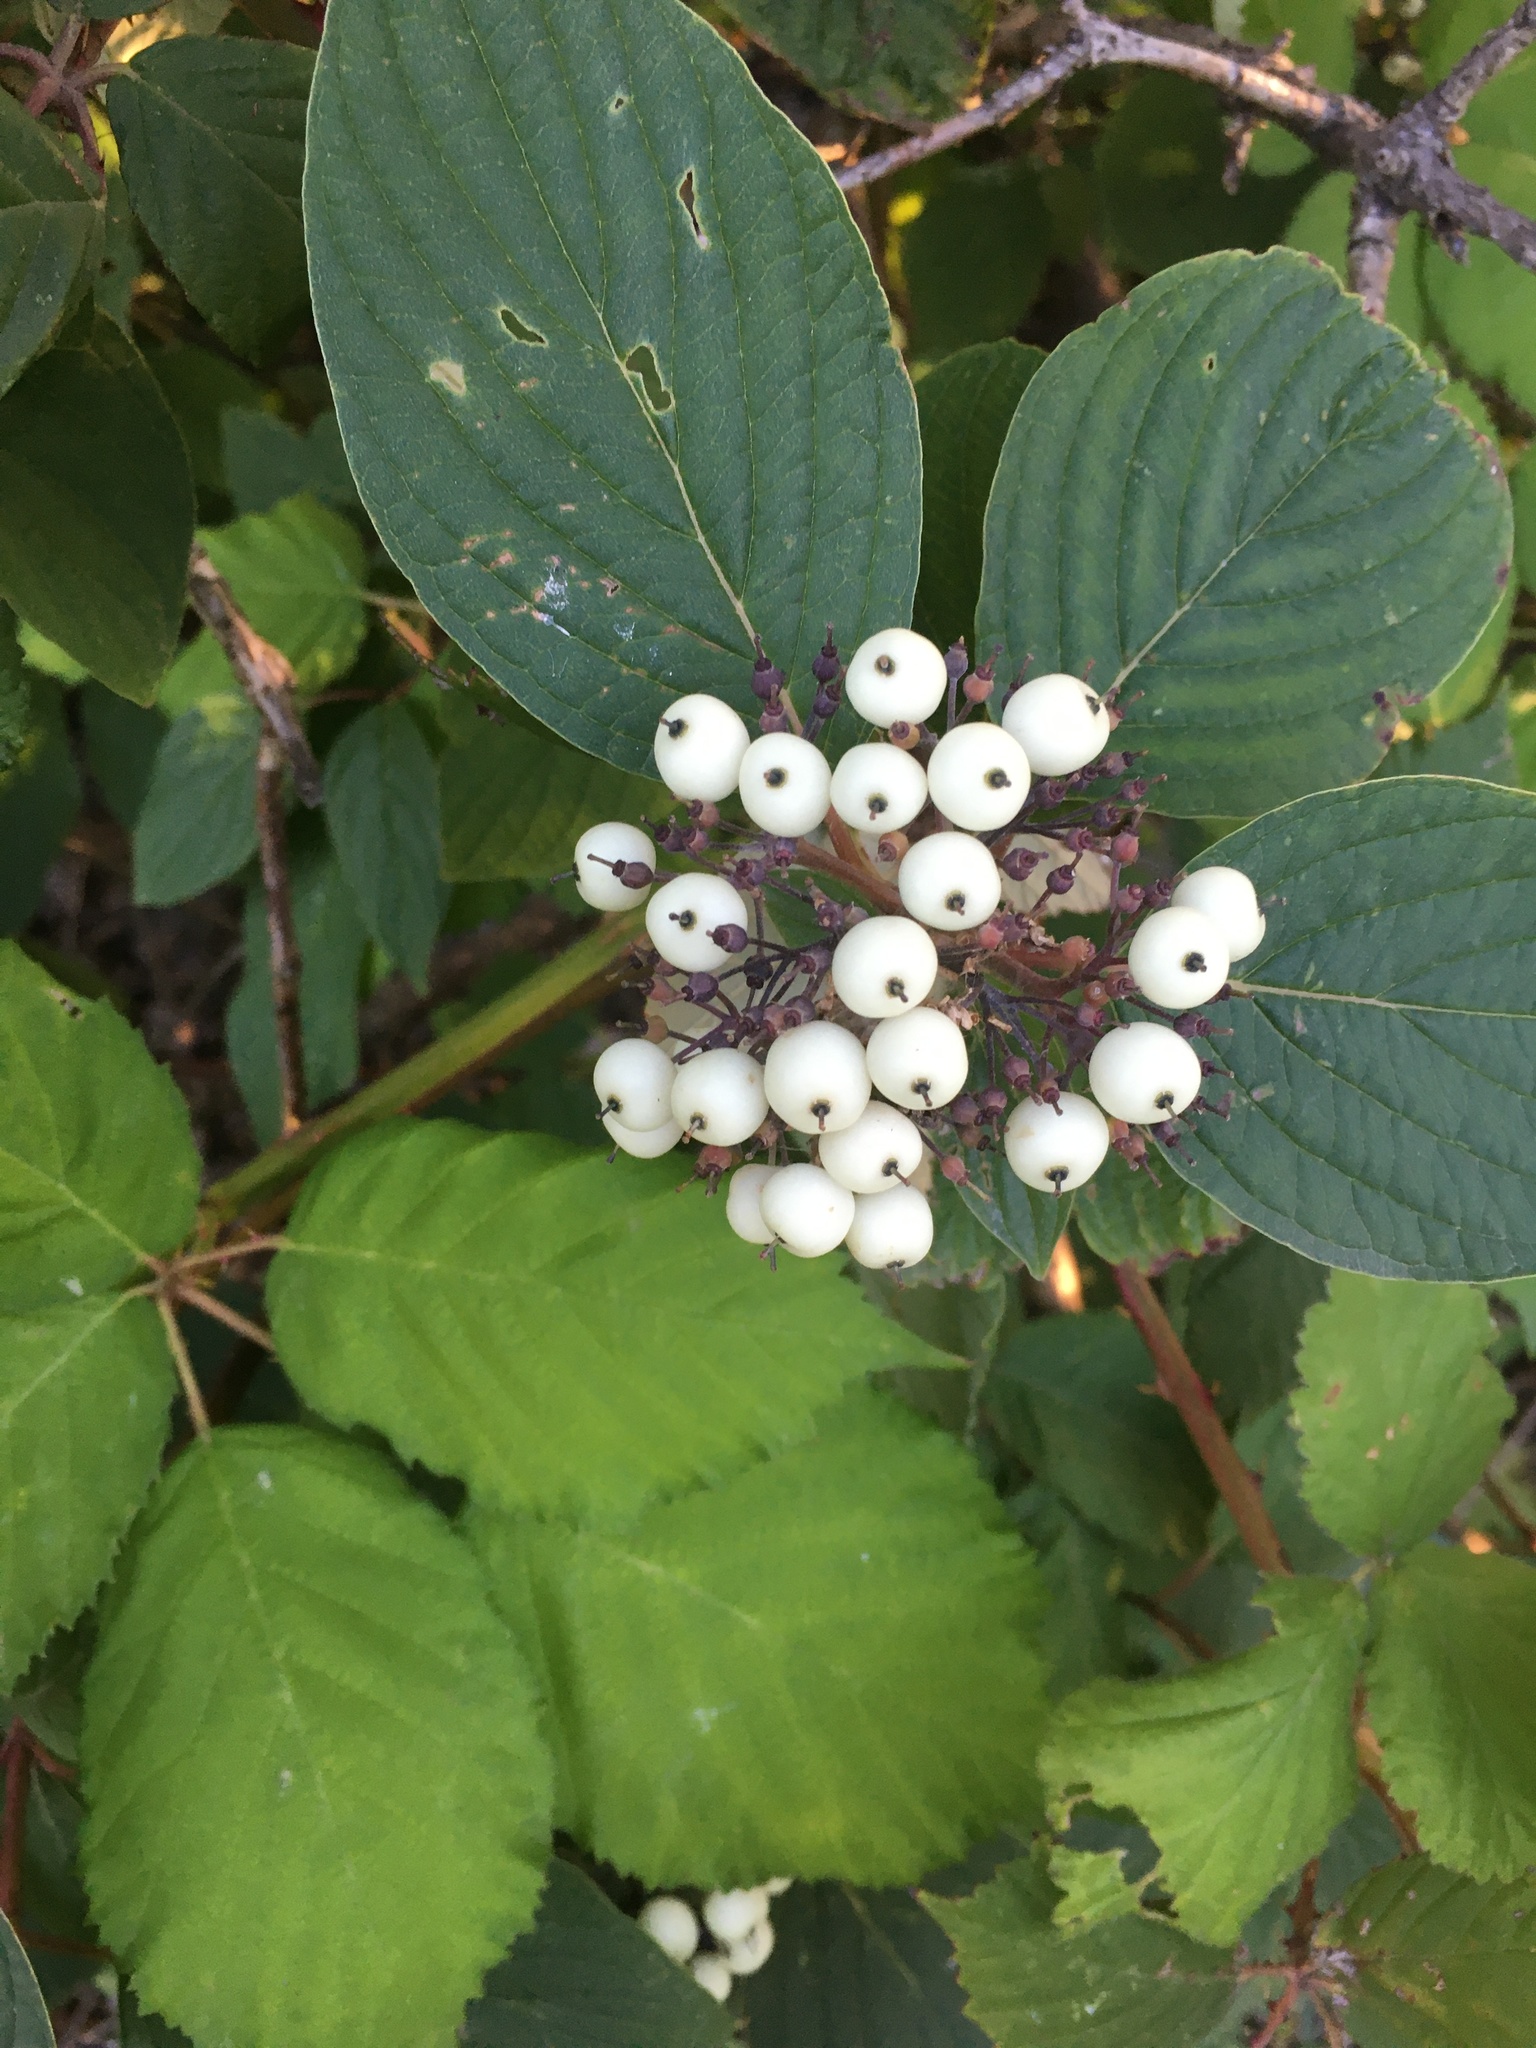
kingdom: Plantae
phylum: Tracheophyta
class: Magnoliopsida
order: Cornales
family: Cornaceae
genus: Cornus
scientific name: Cornus alba
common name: White dogwood
